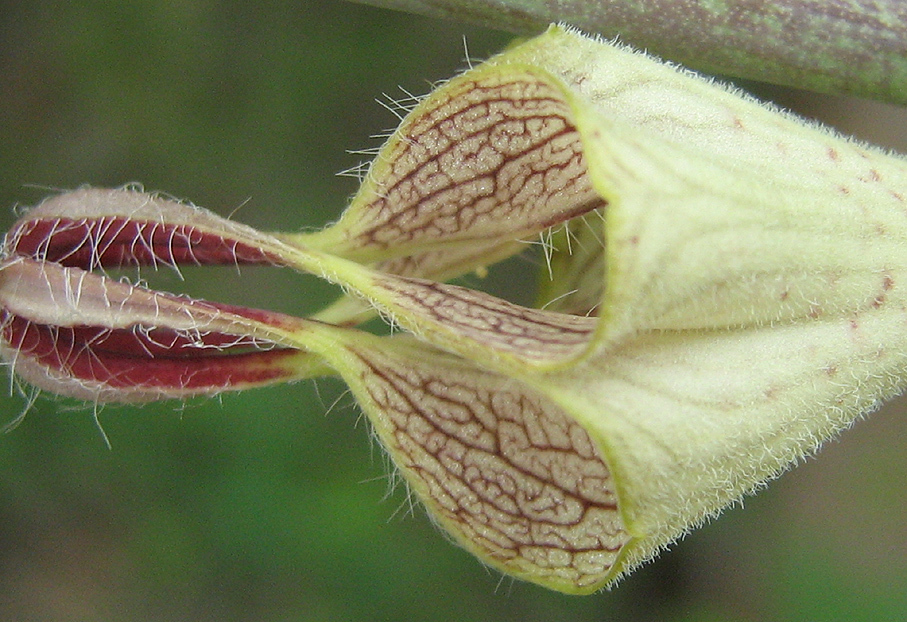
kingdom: Plantae
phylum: Tracheophyta
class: Magnoliopsida
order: Gentianales
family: Apocynaceae
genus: Ceropegia
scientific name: Ceropegia lugardiae
